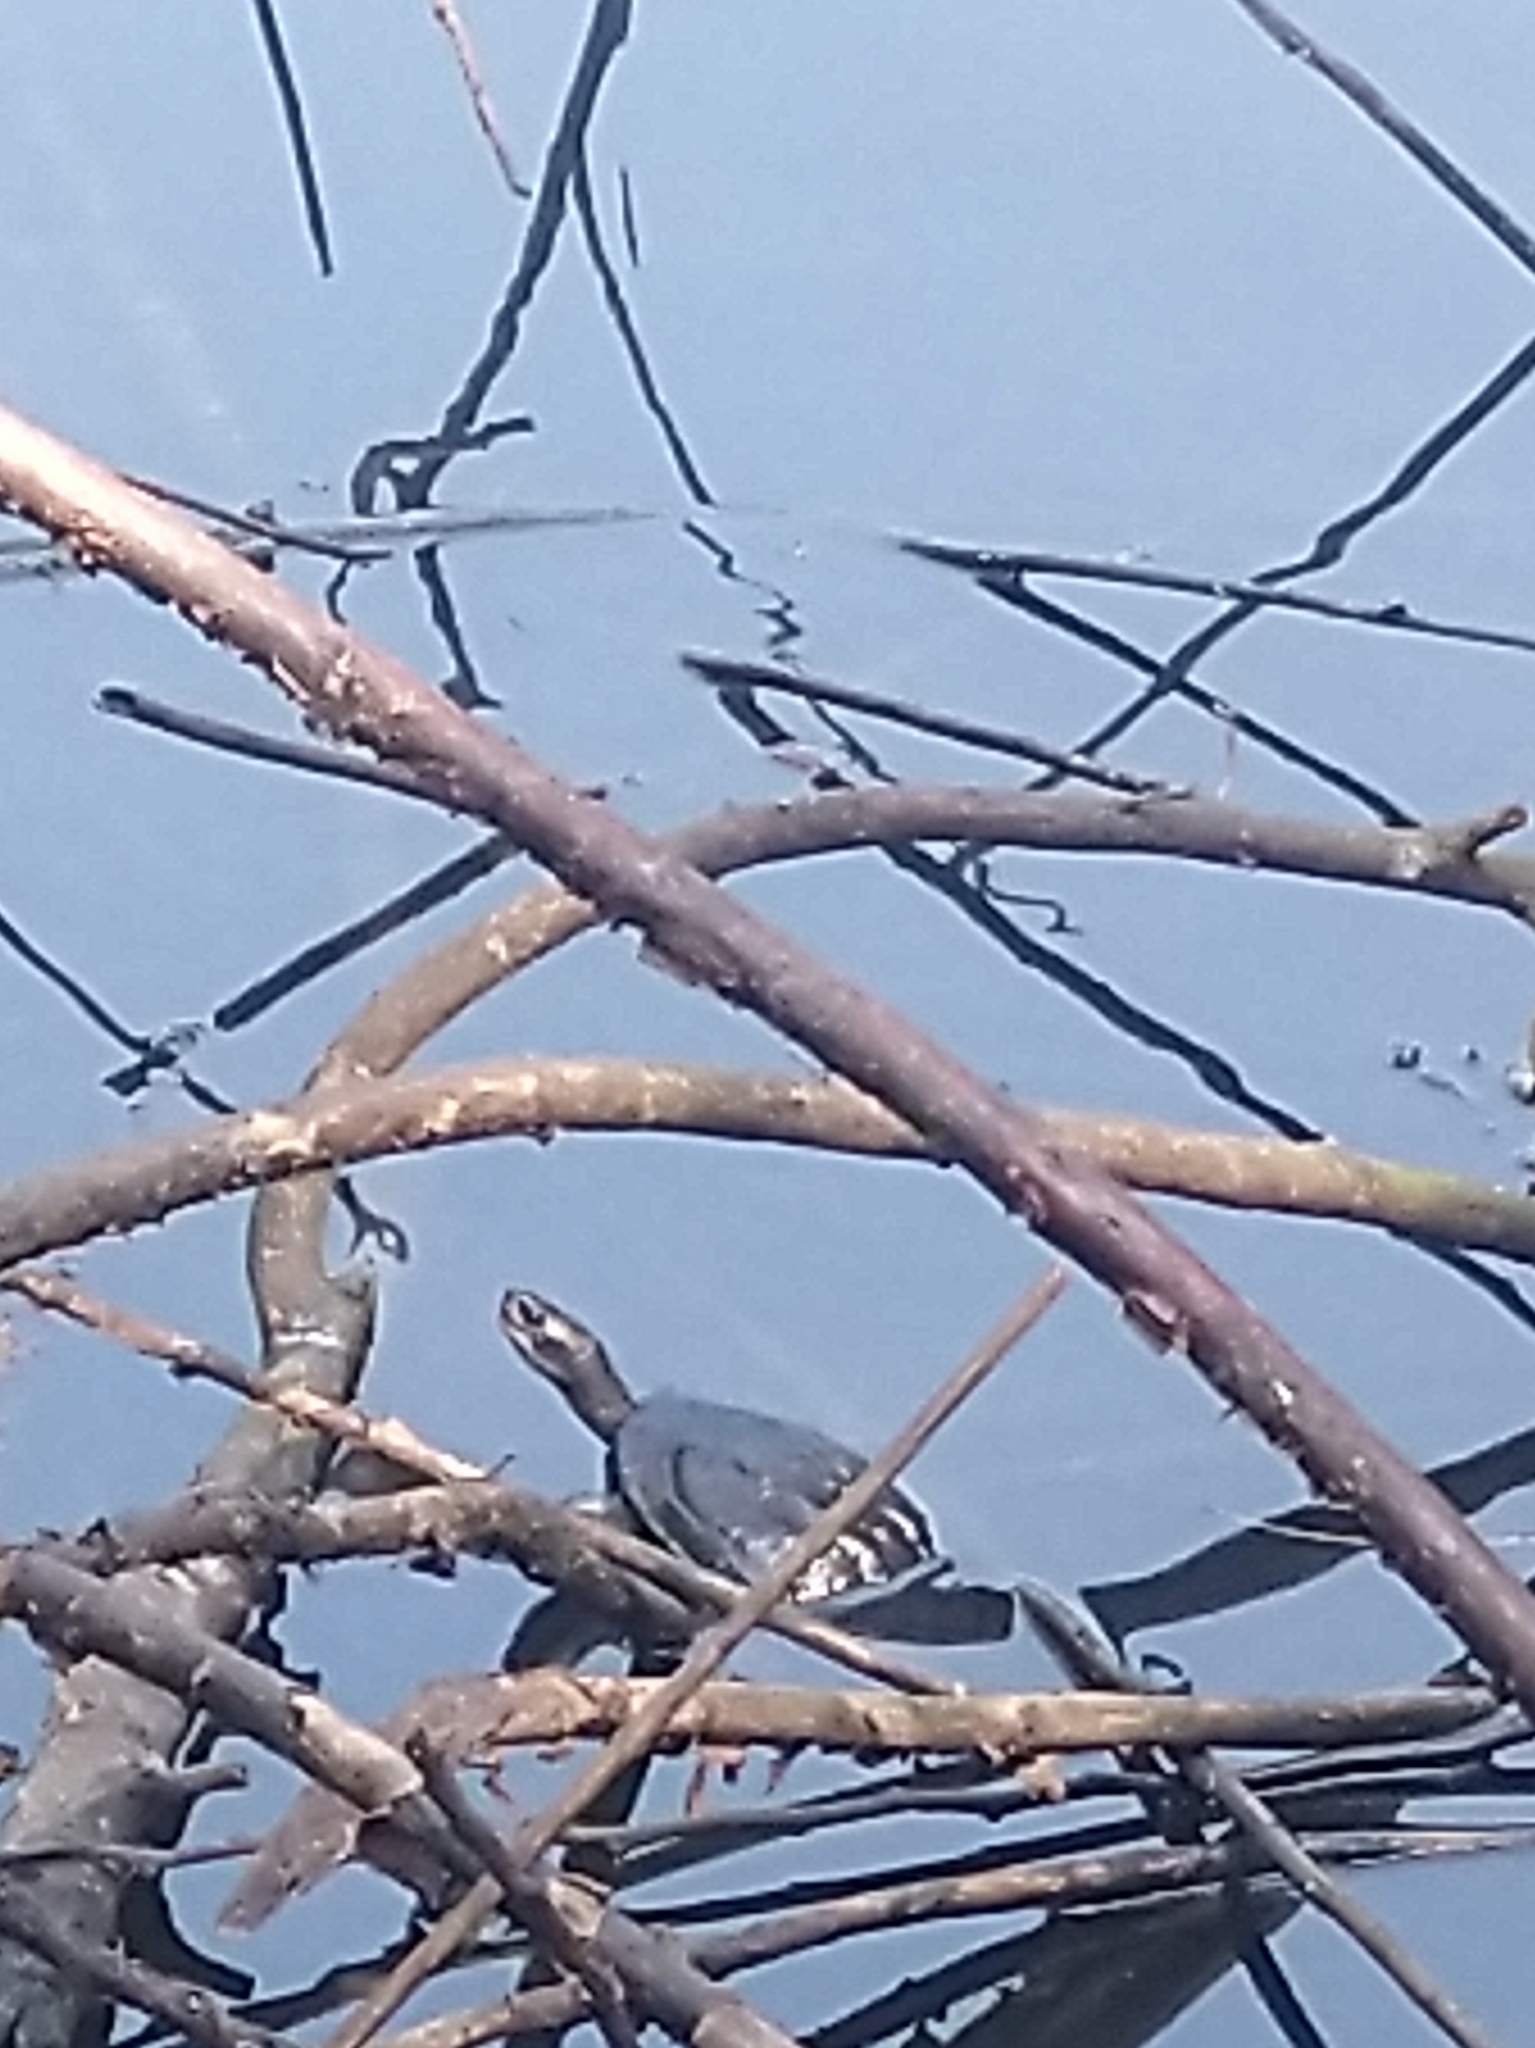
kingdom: Animalia
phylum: Chordata
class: Testudines
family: Geoemydidae
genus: Melanochelys
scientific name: Melanochelys trijuga
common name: Indian black turtle
